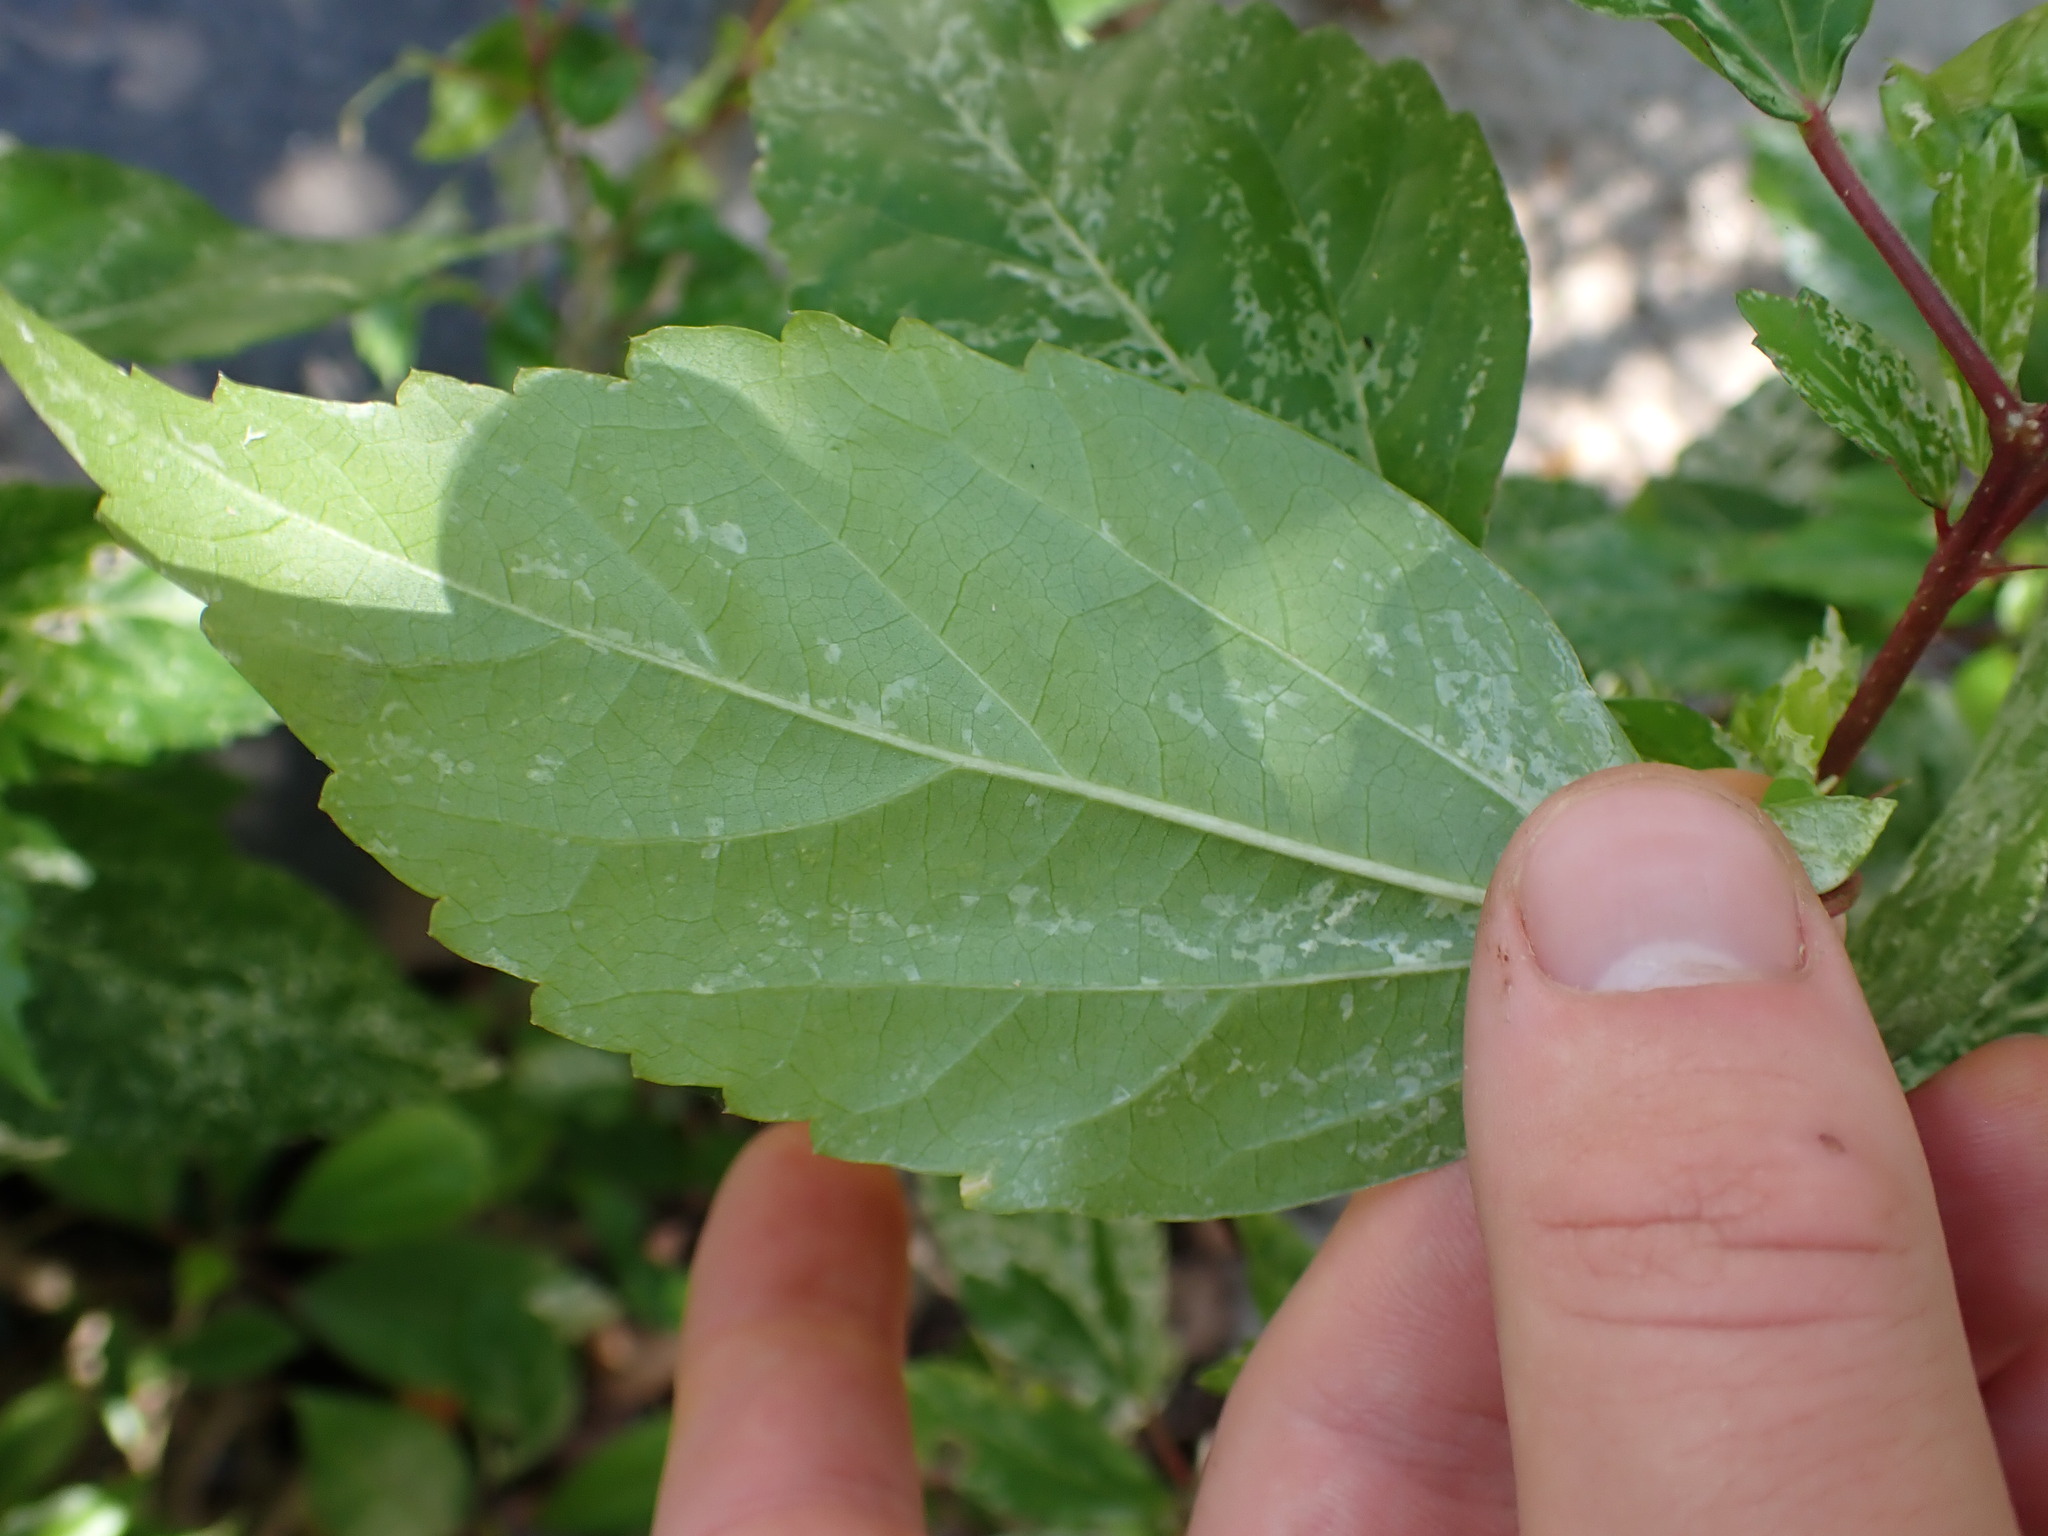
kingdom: Plantae
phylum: Tracheophyta
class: Magnoliopsida
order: Malvales
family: Malvaceae
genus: Hibiscus
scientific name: Hibiscus archeri
